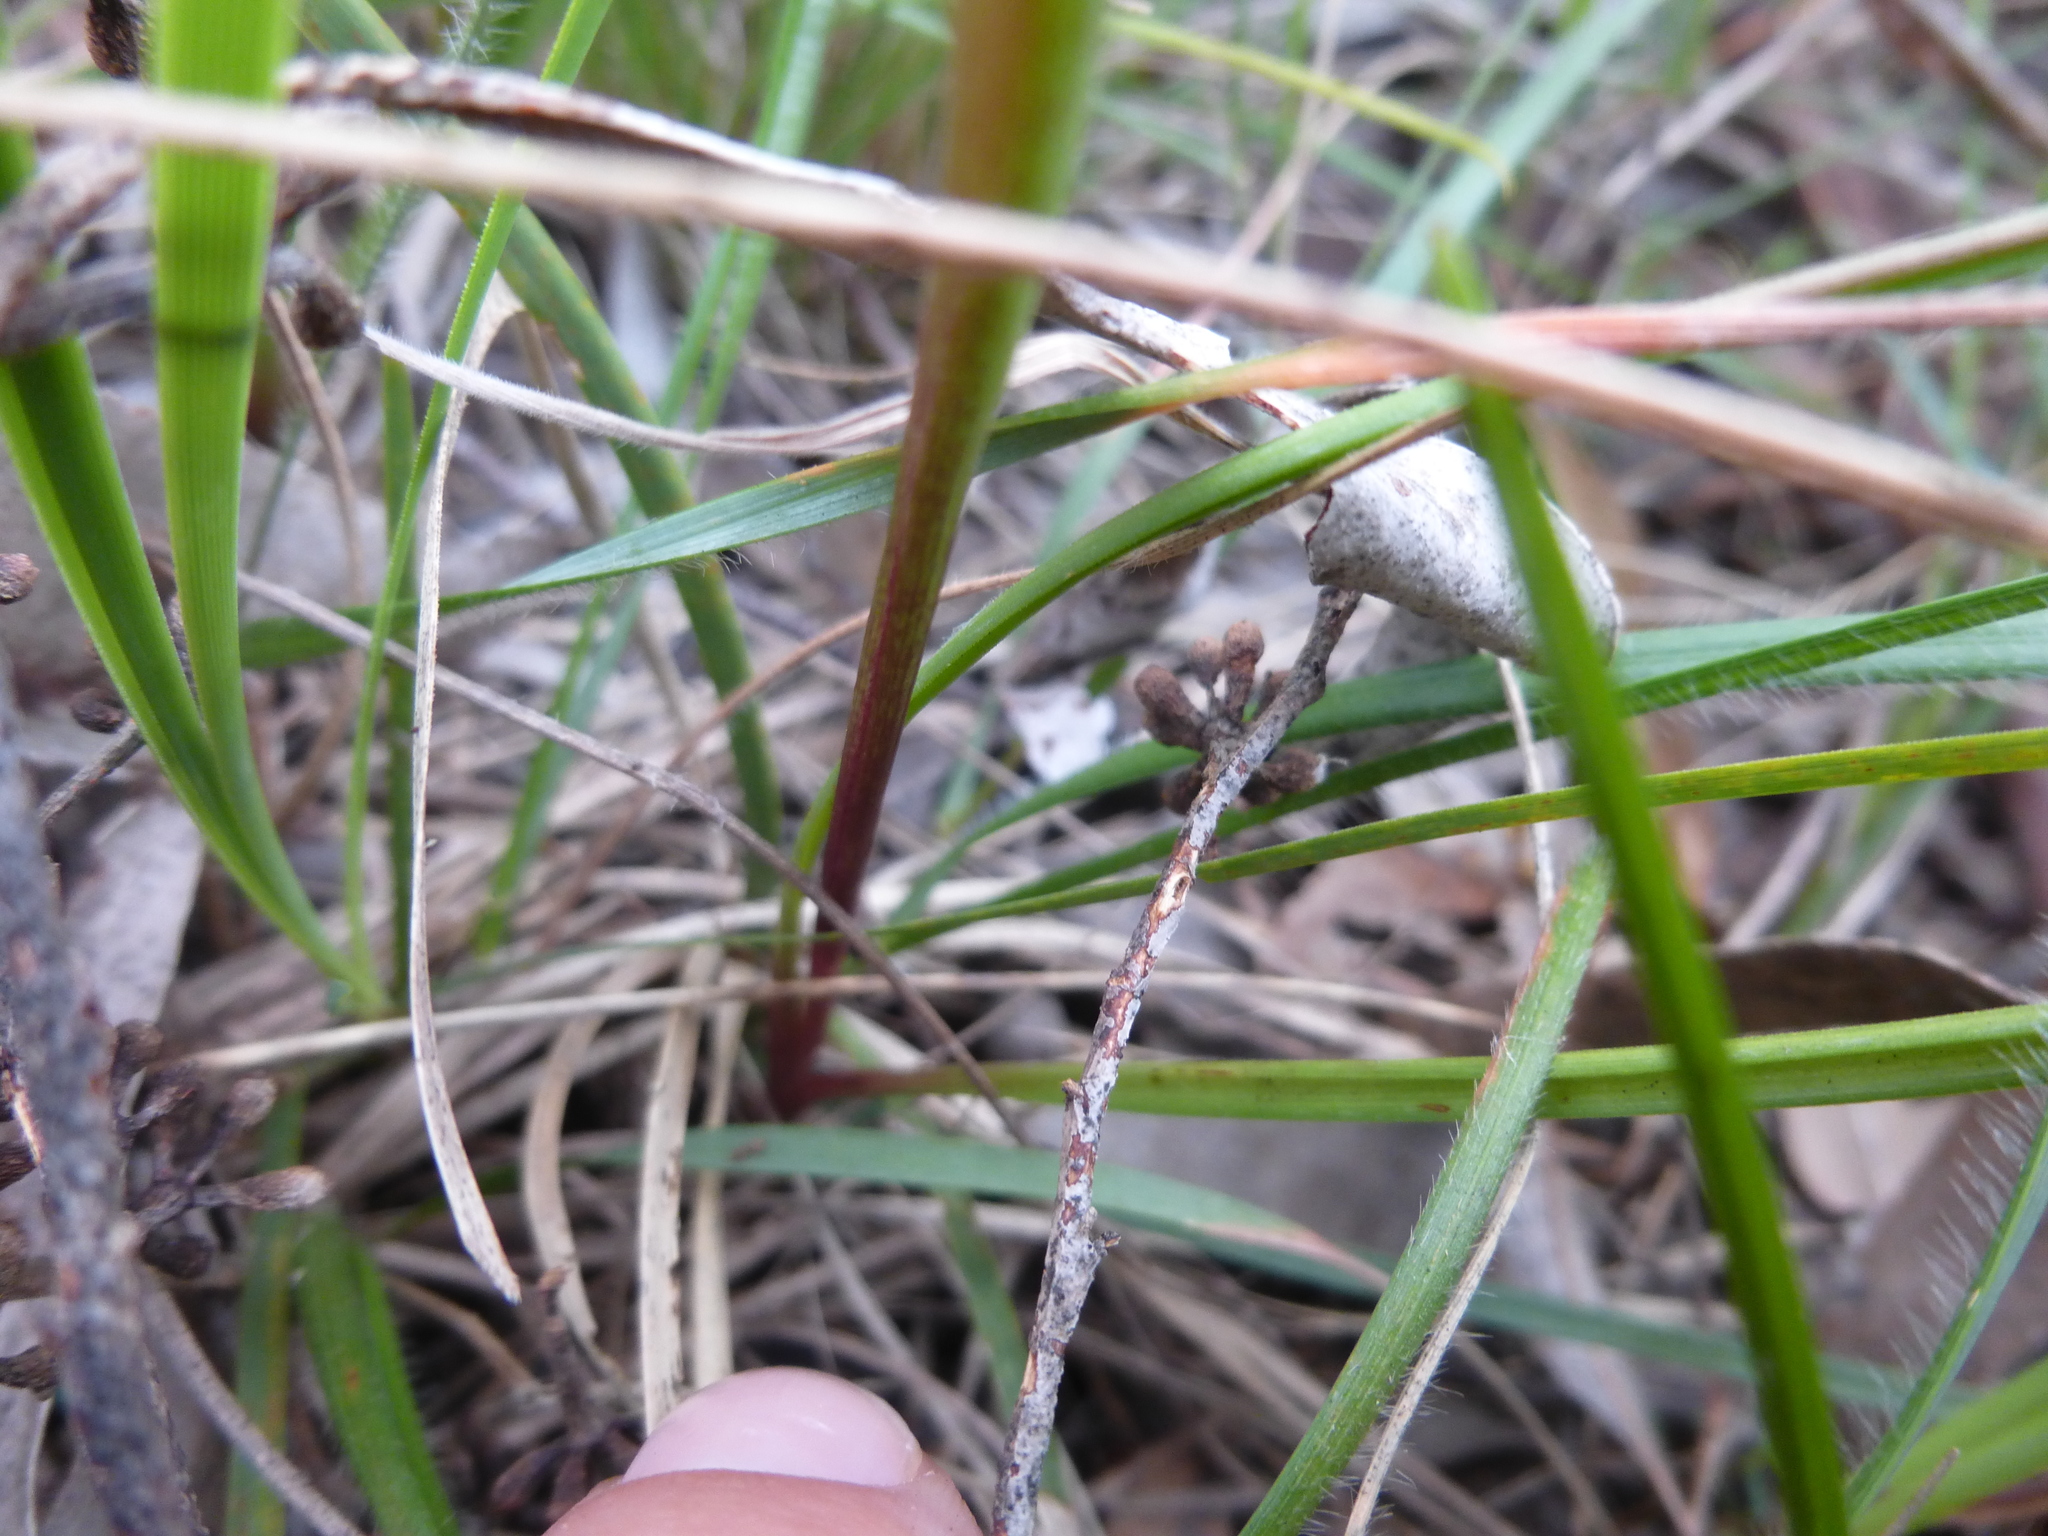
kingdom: Plantae
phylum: Tracheophyta
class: Liliopsida
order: Asparagales
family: Orchidaceae
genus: Diuris
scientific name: Diuris sulphurea
